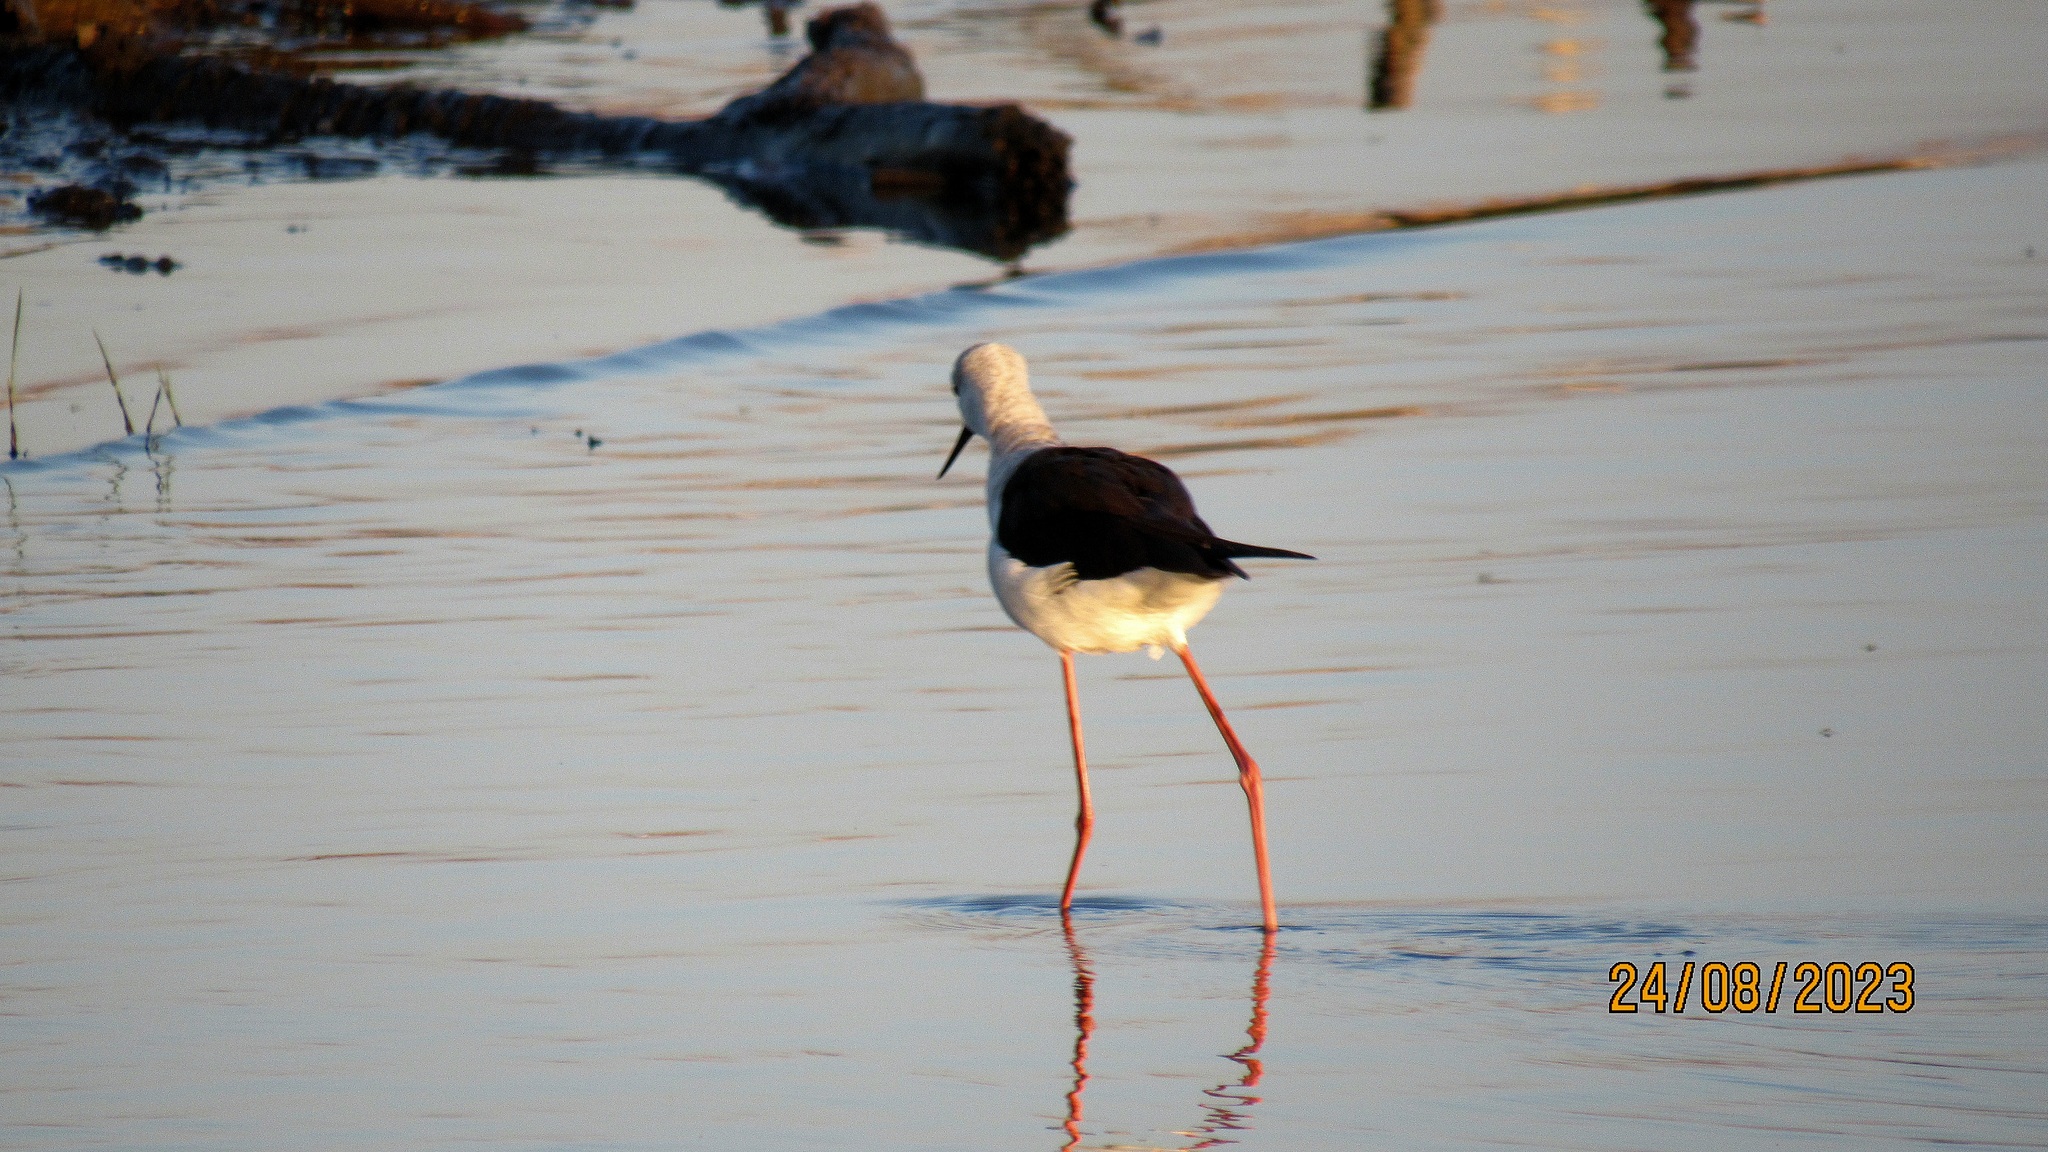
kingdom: Animalia
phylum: Chordata
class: Aves
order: Charadriiformes
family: Recurvirostridae
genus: Himantopus
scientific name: Himantopus himantopus
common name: Black-winged stilt
